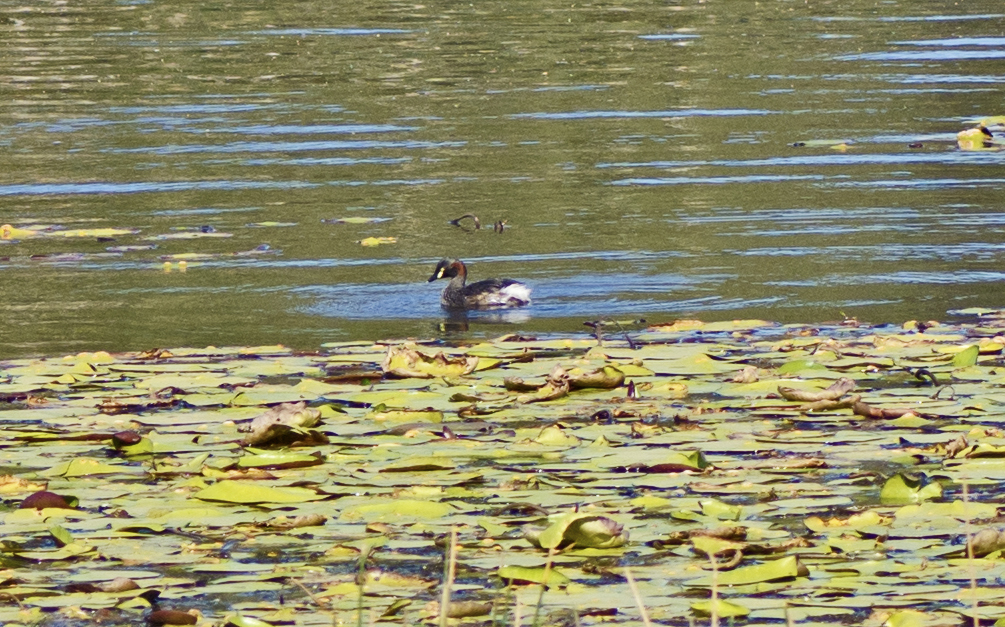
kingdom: Animalia
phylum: Chordata
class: Aves
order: Podicipediformes
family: Podicipedidae
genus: Tachybaptus
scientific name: Tachybaptus novaehollandiae
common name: Australasian grebe
